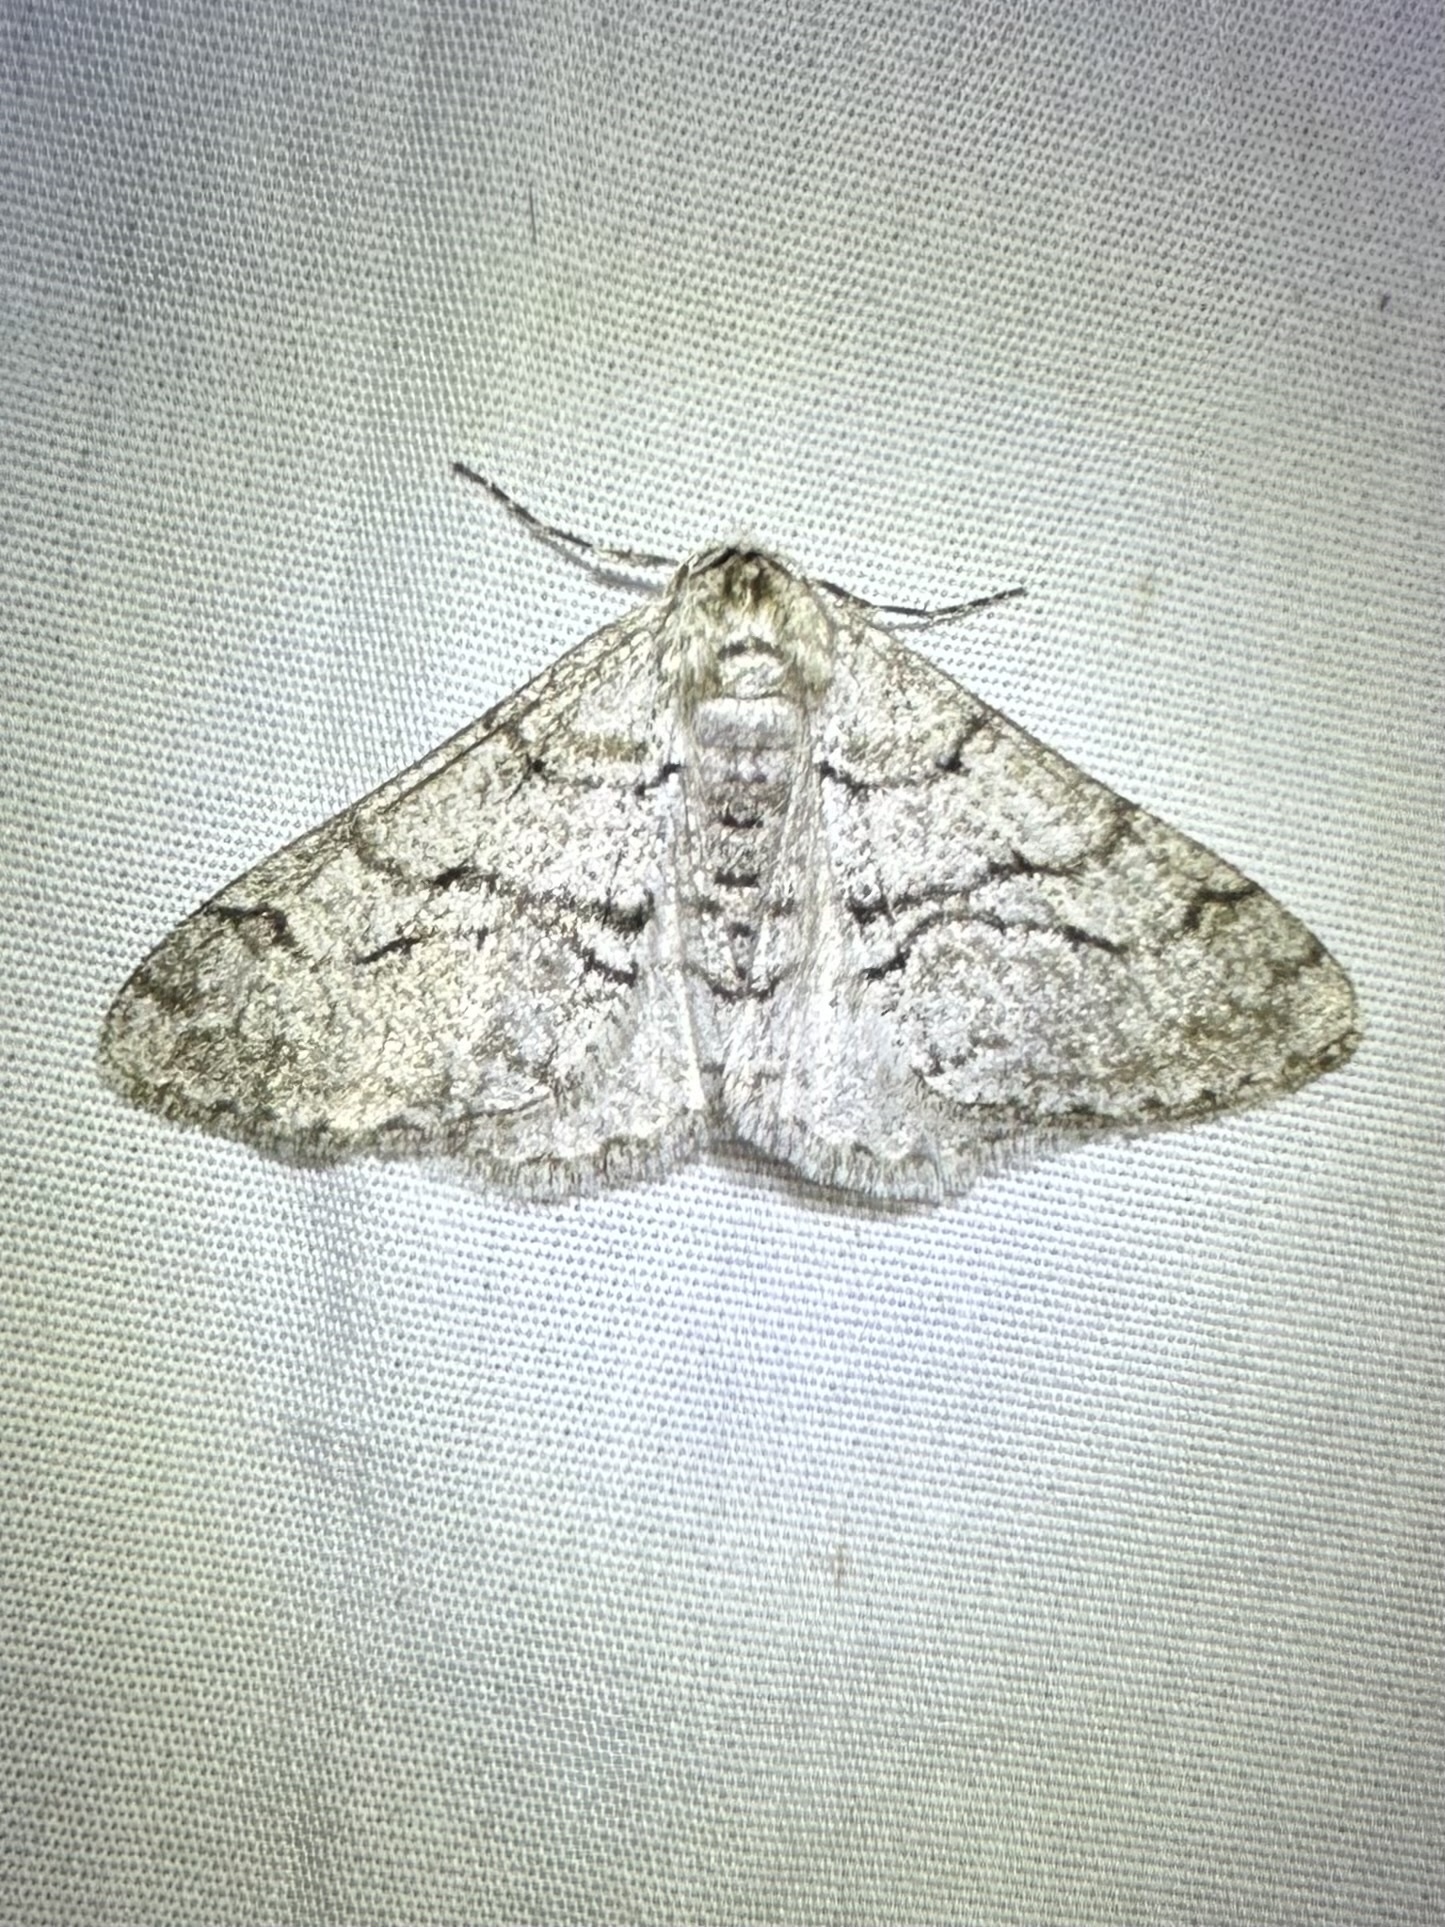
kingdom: Animalia
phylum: Arthropoda
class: Insecta
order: Lepidoptera
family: Geometridae
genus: Phigalia
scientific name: Phigalia titea
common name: Spiny looper
